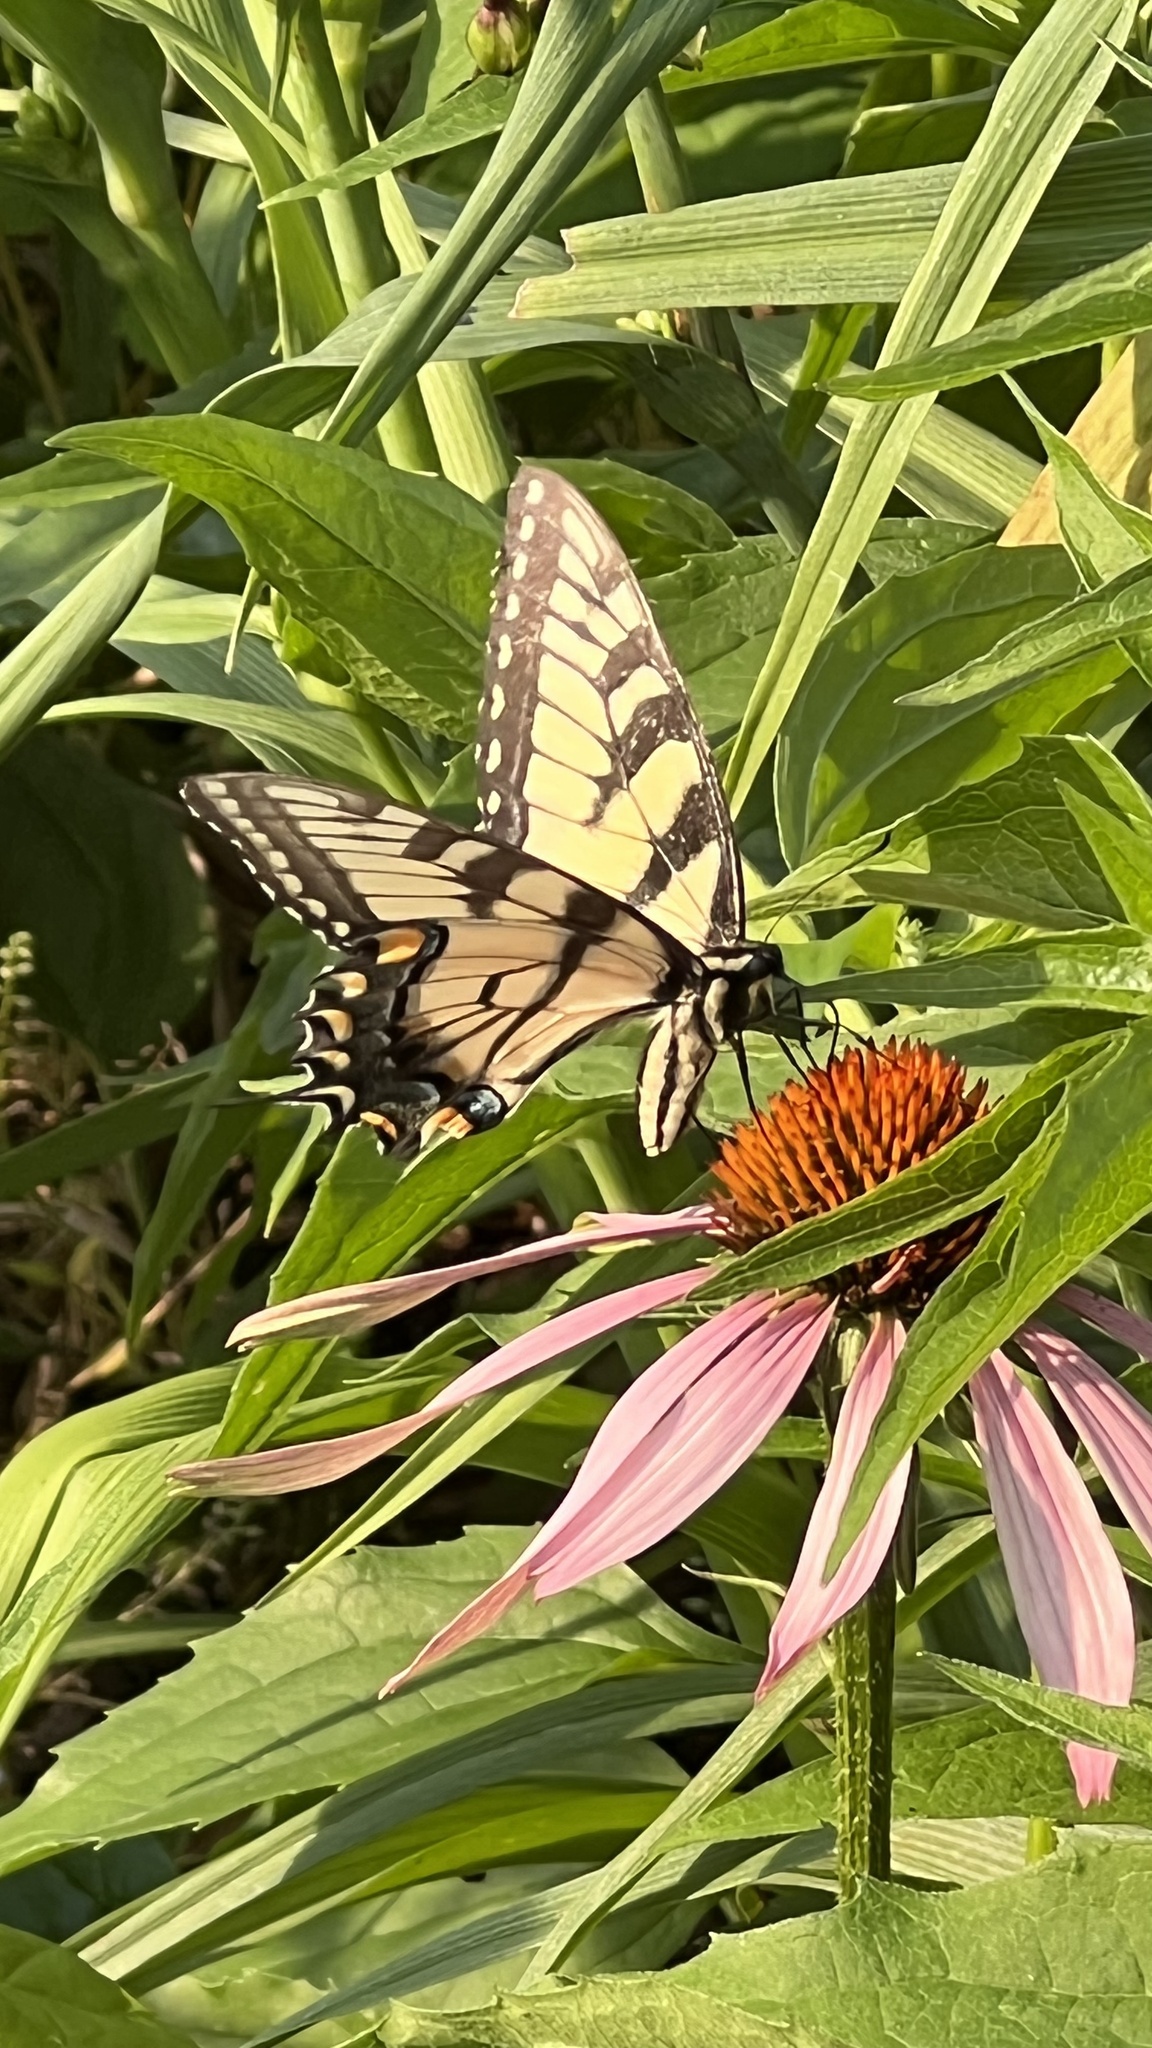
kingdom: Animalia
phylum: Arthropoda
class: Insecta
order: Lepidoptera
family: Papilionidae
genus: Papilio
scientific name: Papilio glaucus
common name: Tiger swallowtail
